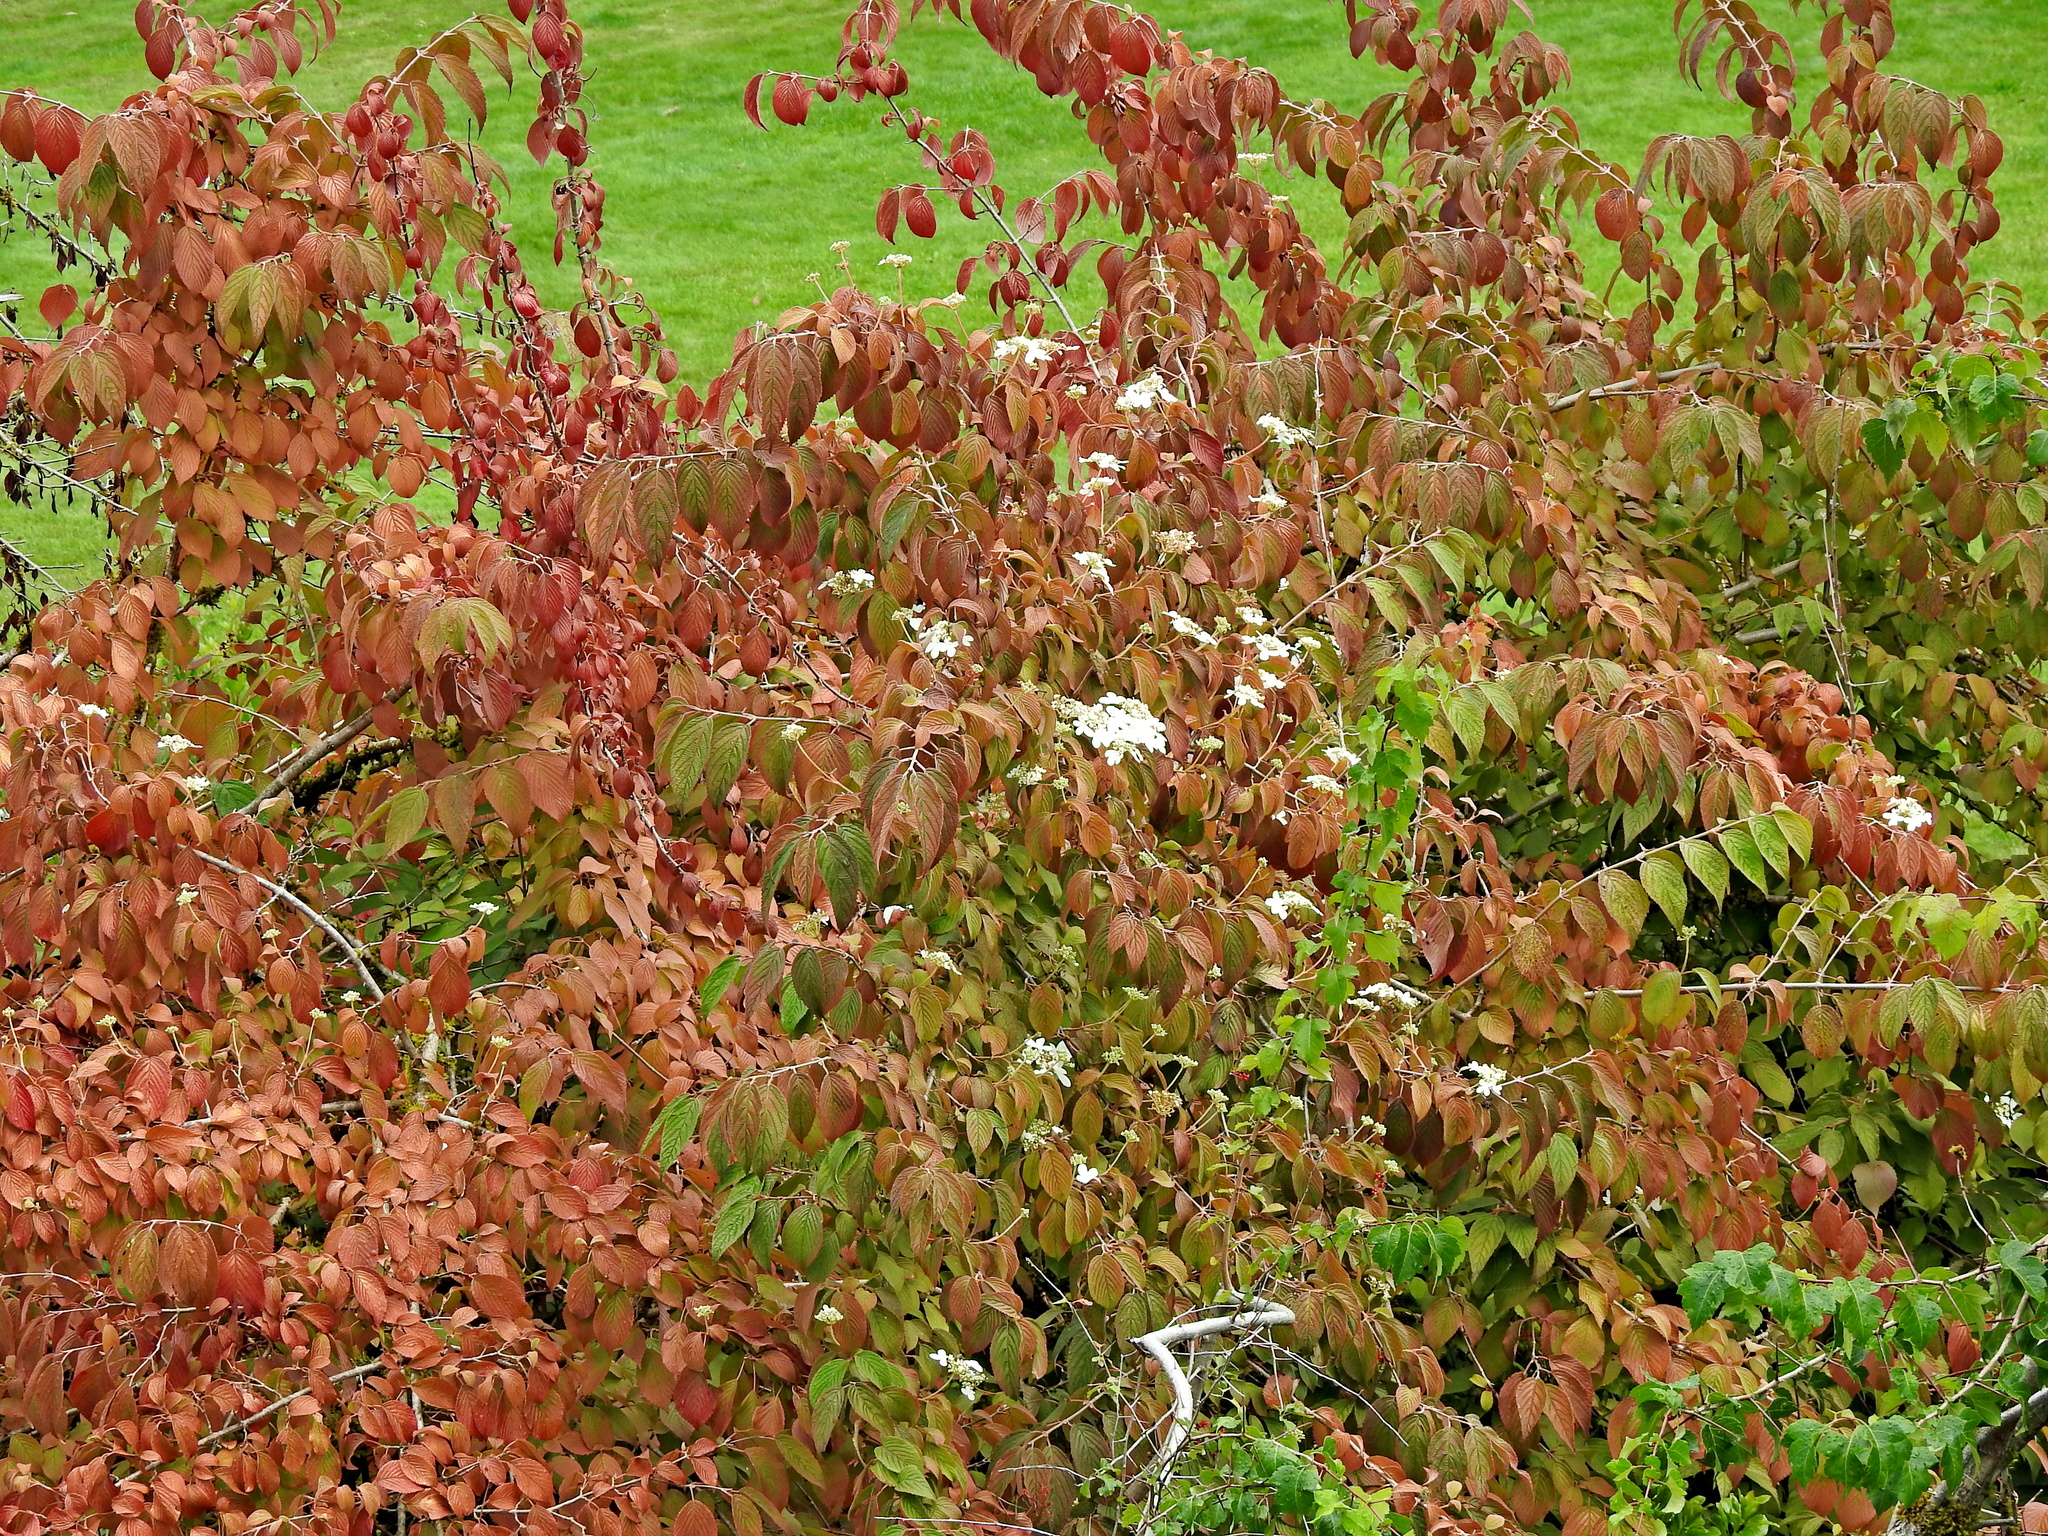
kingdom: Plantae
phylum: Tracheophyta
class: Magnoliopsida
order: Dipsacales
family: Viburnaceae
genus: Viburnum
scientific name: Viburnum plicatum
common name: Japanese snowball
